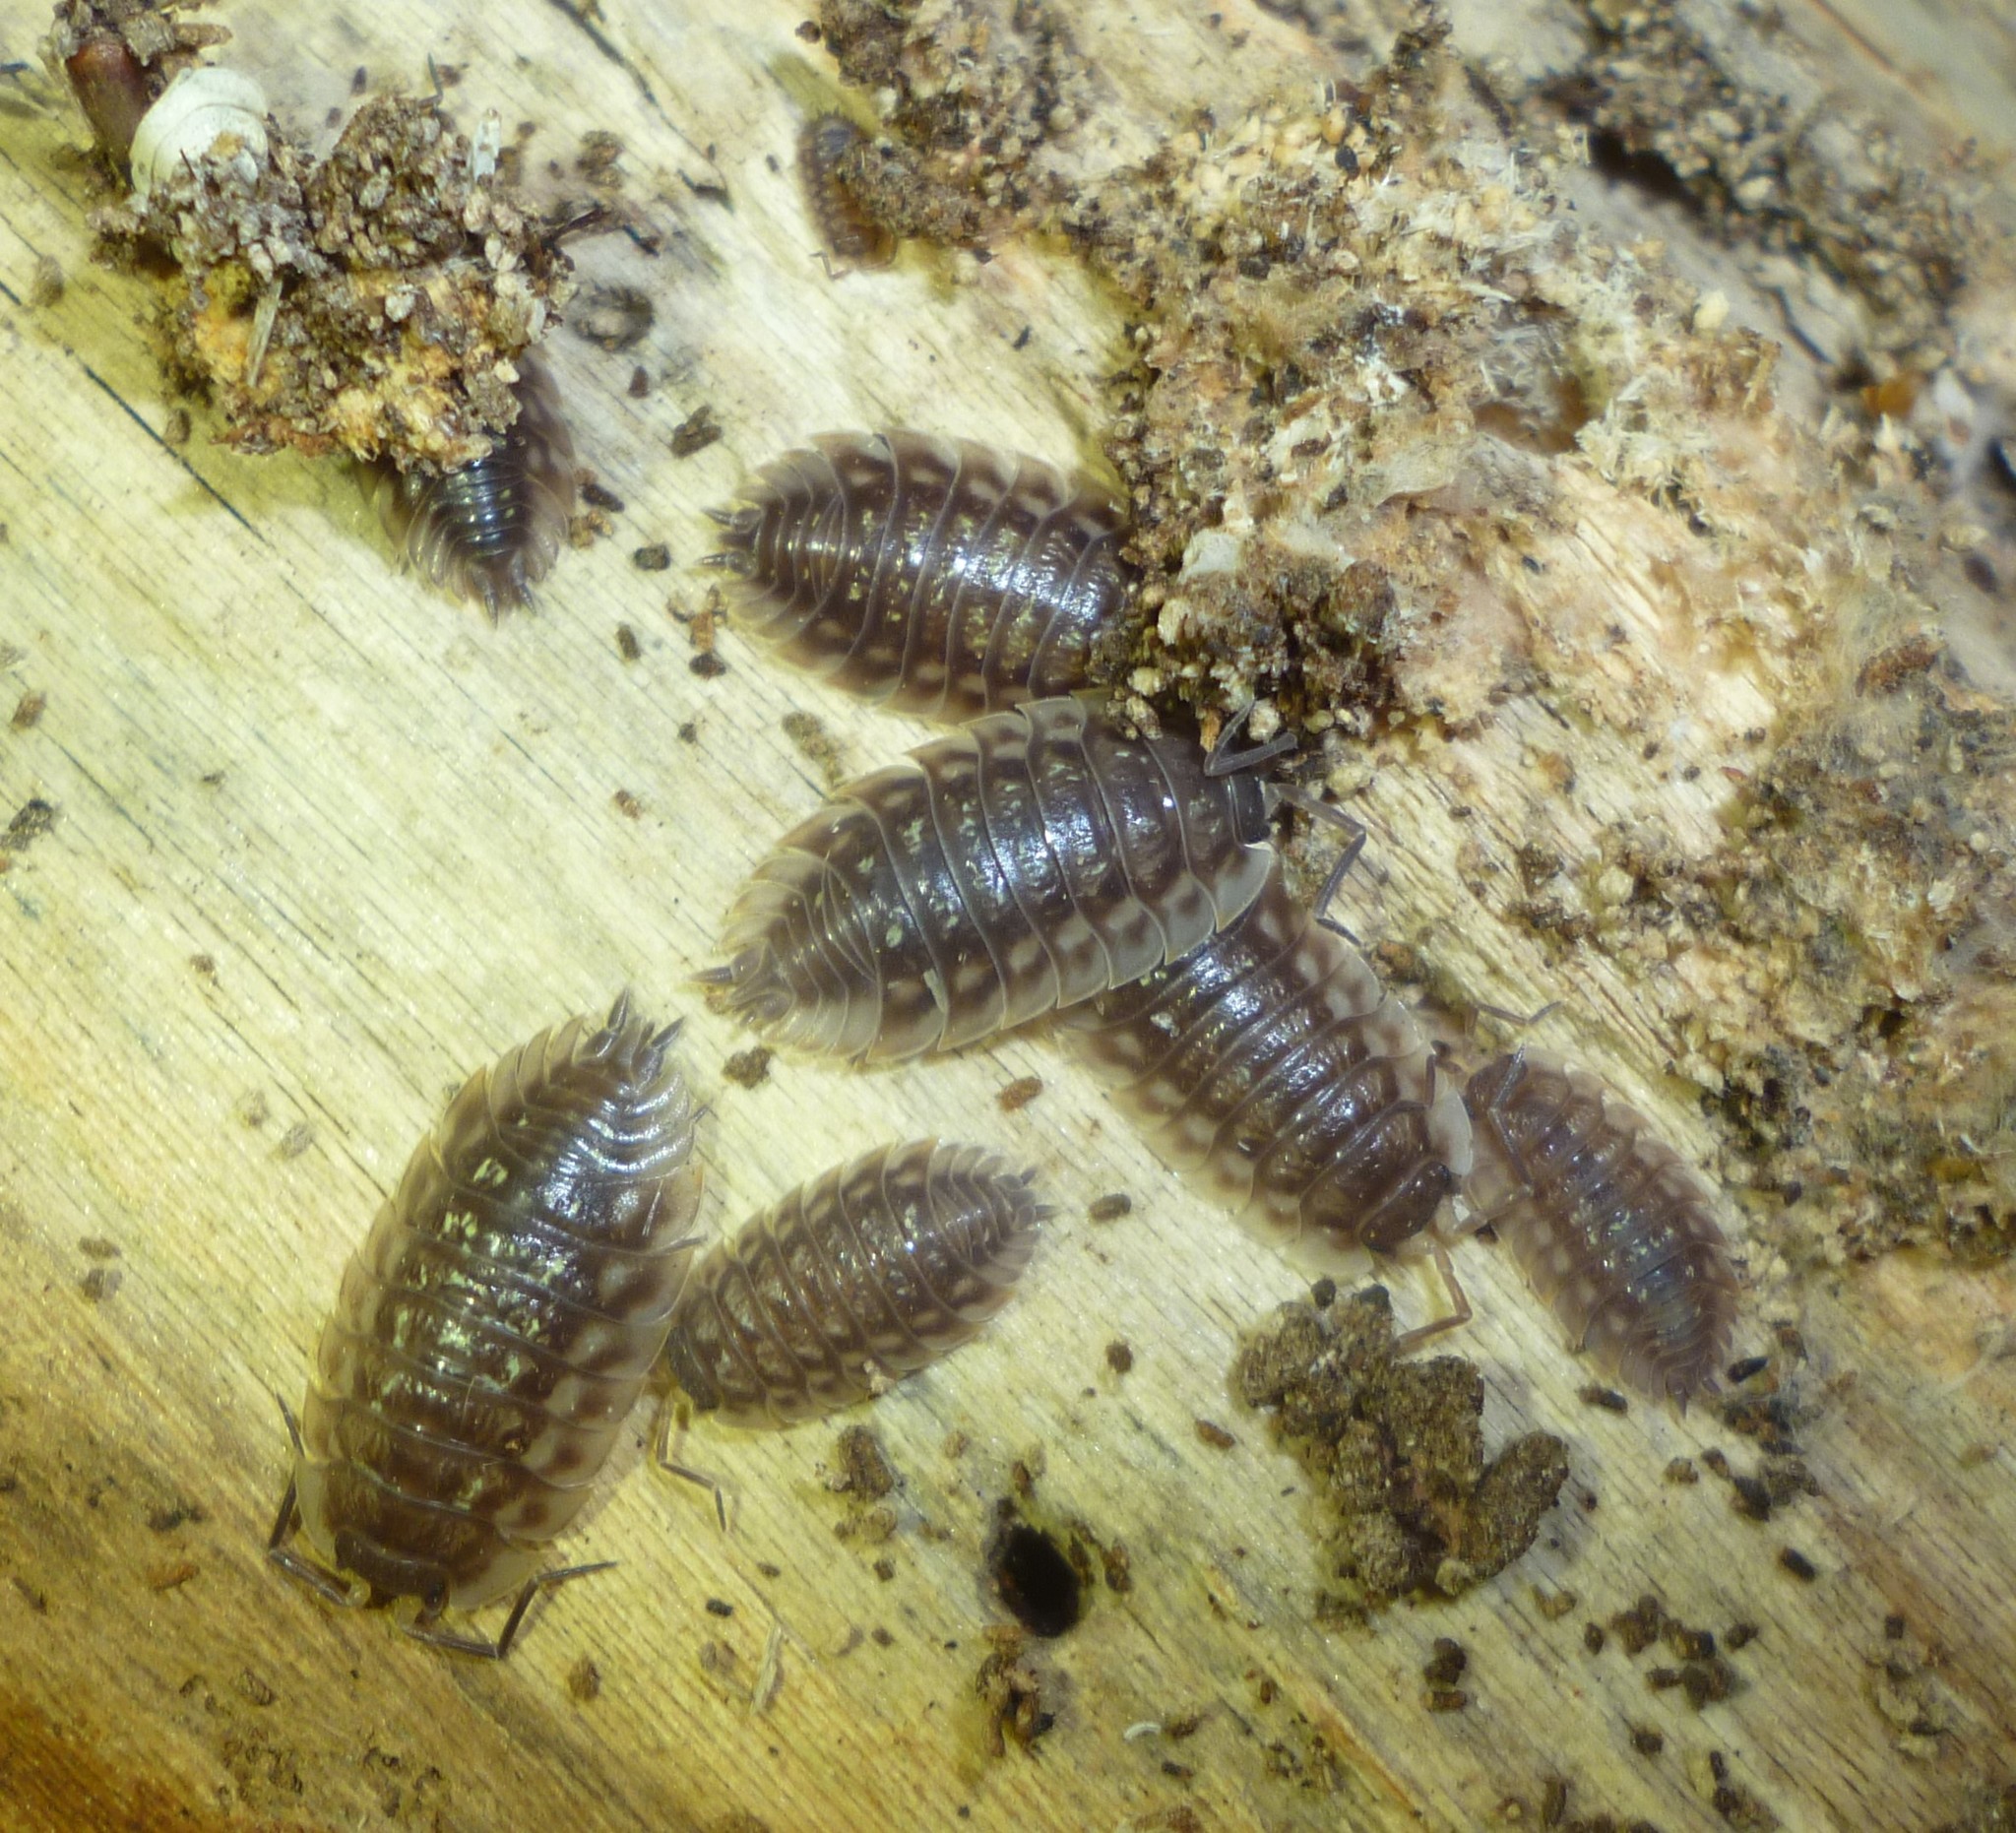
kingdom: Animalia
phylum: Arthropoda
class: Malacostraca
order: Isopoda
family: Oniscidae
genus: Oniscus
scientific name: Oniscus asellus
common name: Common shiny woodlouse
